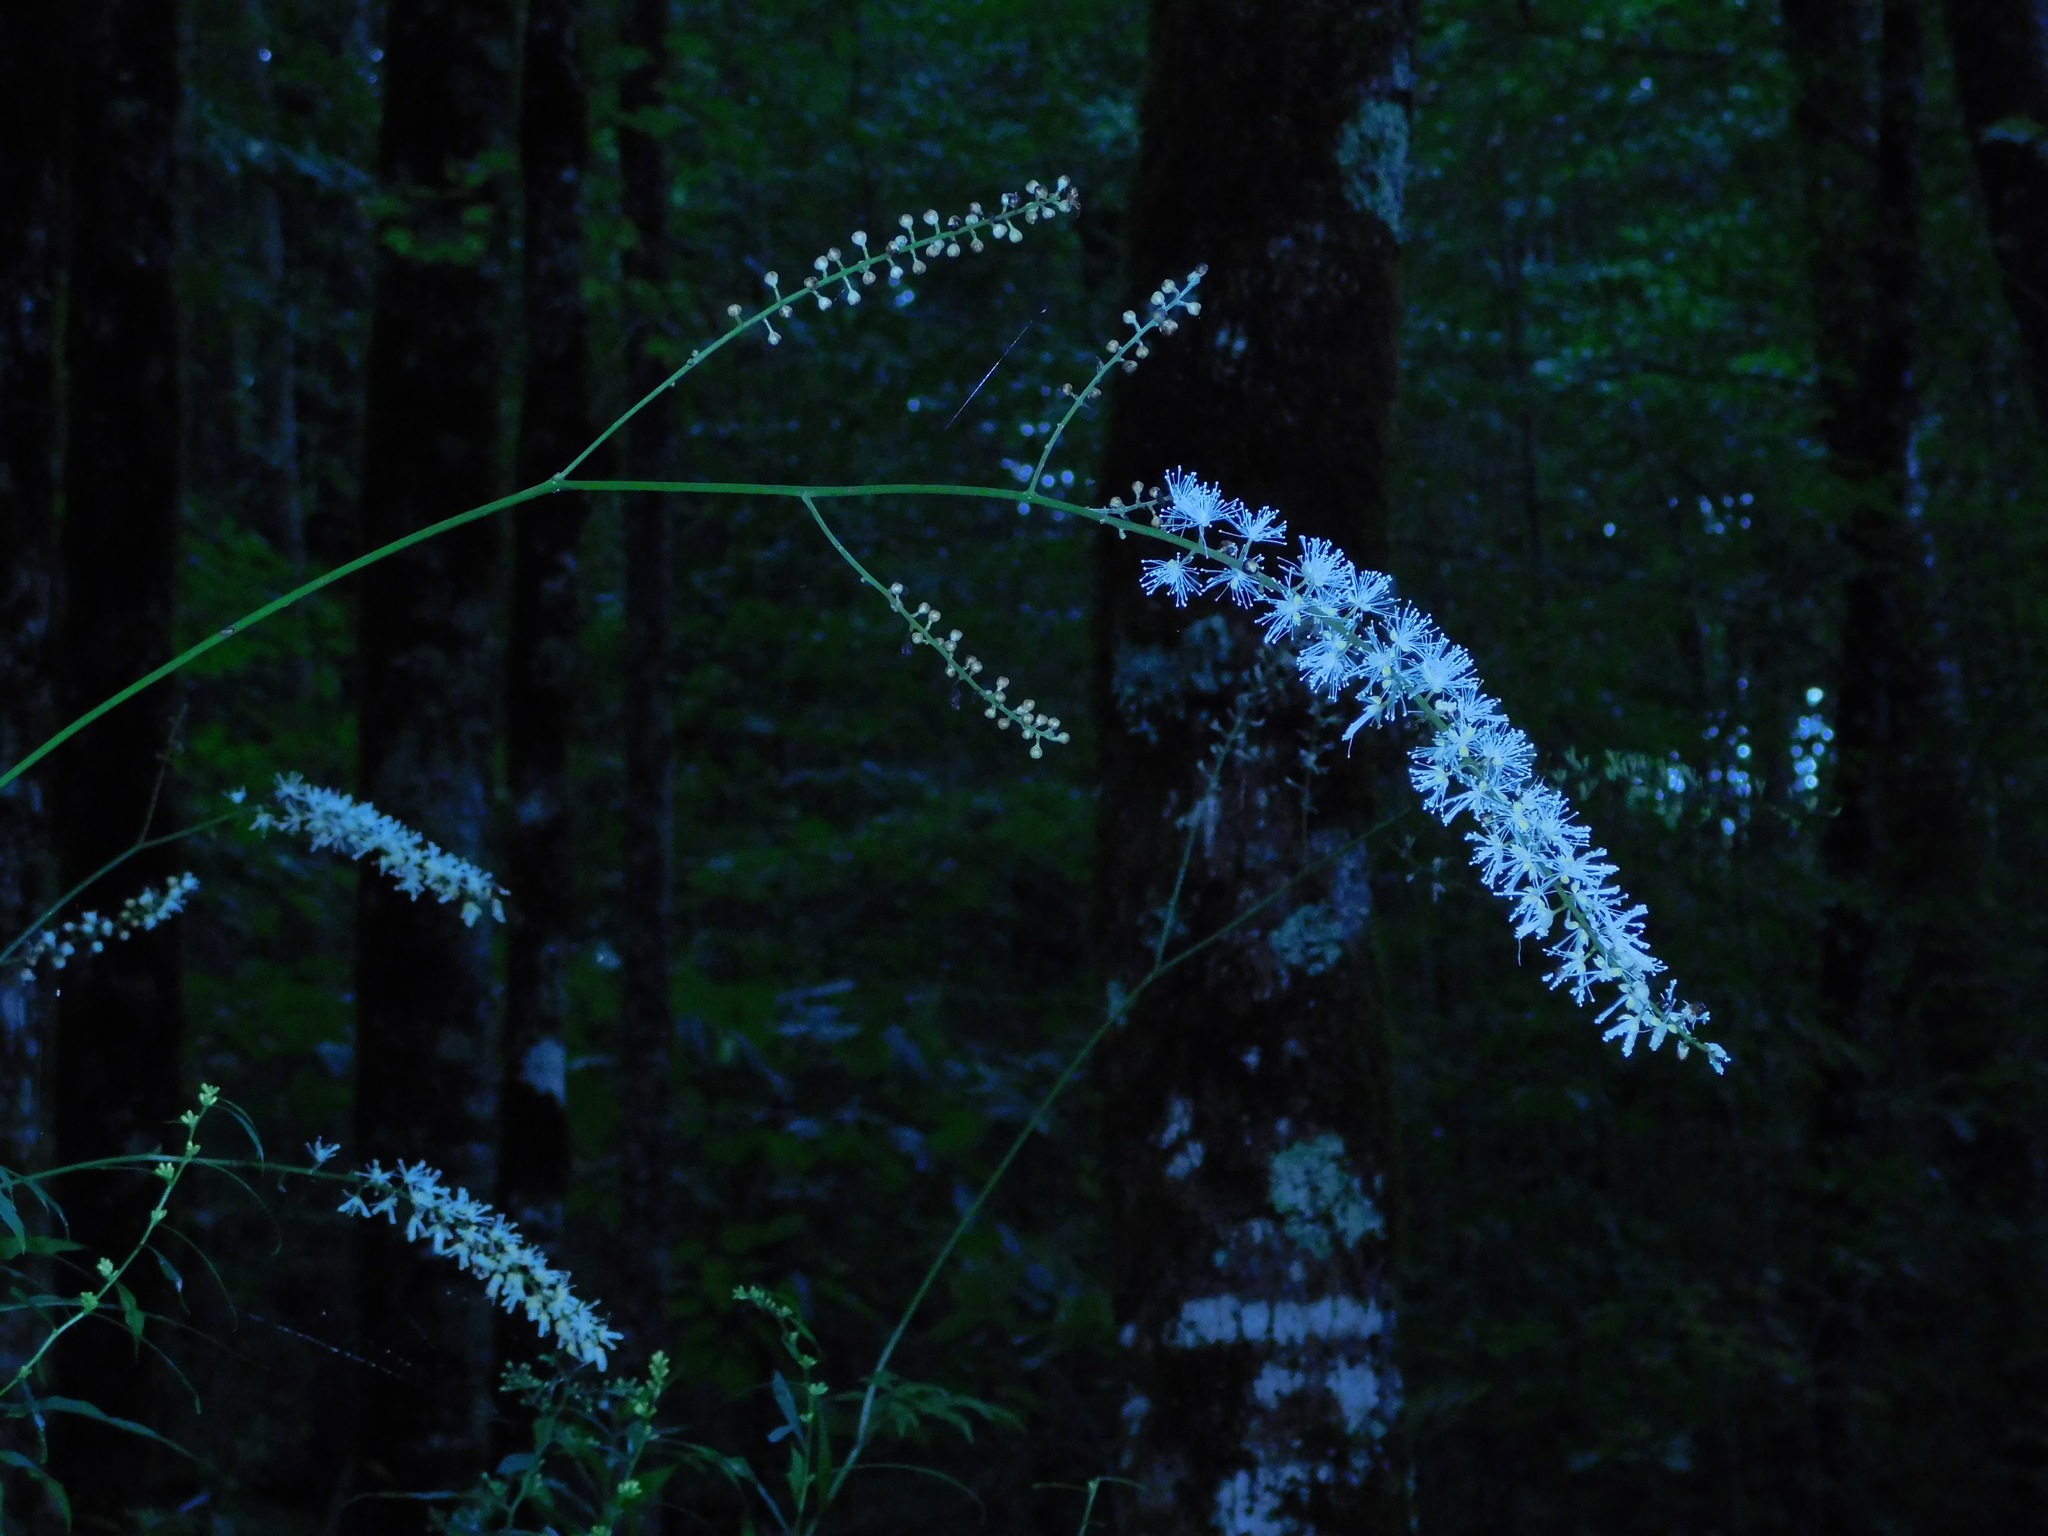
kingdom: Plantae
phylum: Tracheophyta
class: Magnoliopsida
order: Ranunculales
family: Ranunculaceae
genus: Actaea
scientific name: Actaea podocarpa
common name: American bugbane
